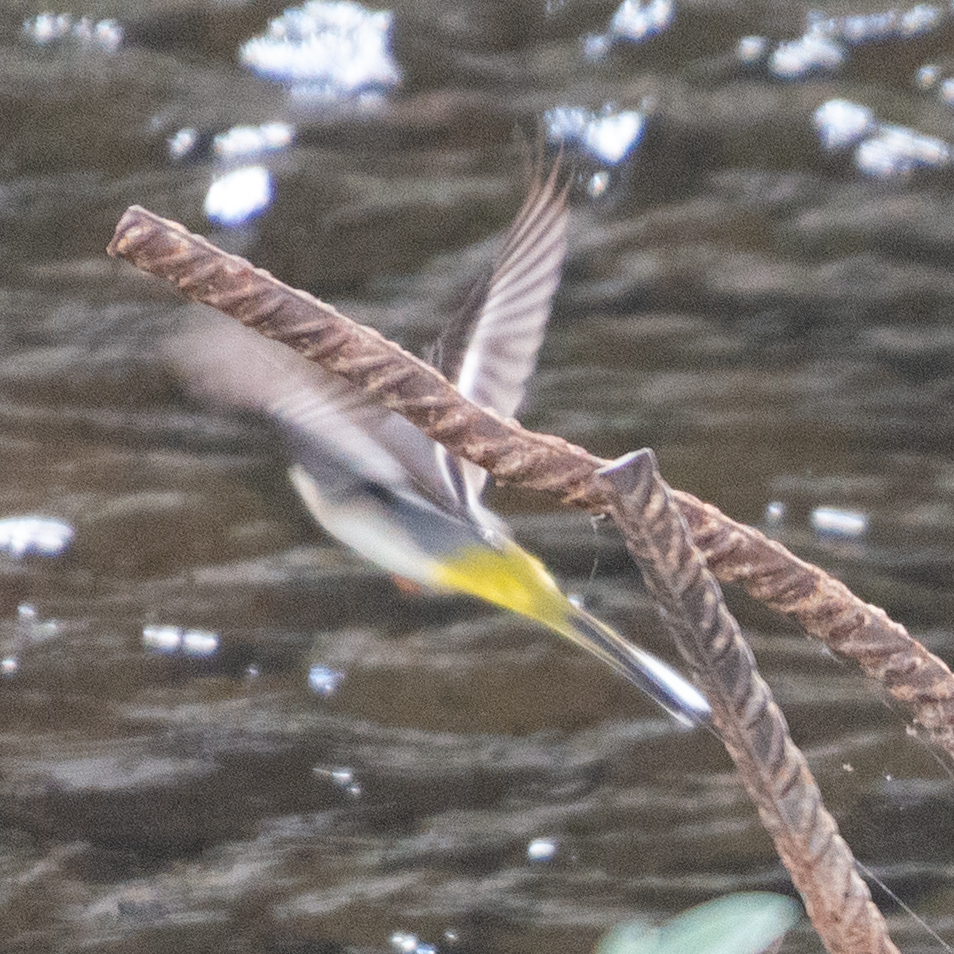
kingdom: Animalia
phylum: Chordata
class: Aves
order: Passeriformes
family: Motacillidae
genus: Motacilla
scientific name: Motacilla cinerea
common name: Grey wagtail
